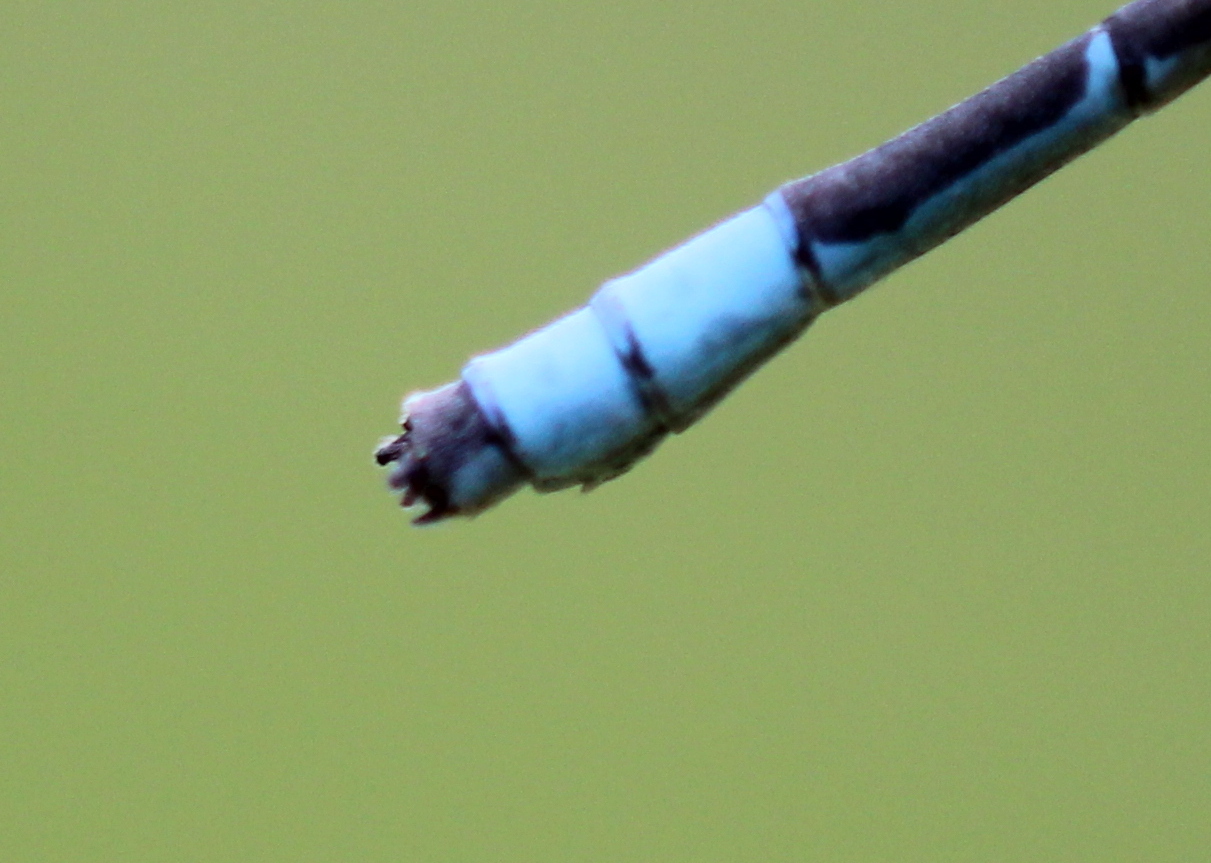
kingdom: Animalia
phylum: Arthropoda
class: Insecta
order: Odonata
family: Coenagrionidae
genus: Enallagma
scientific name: Enallagma ebrium
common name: Marsh bluet
